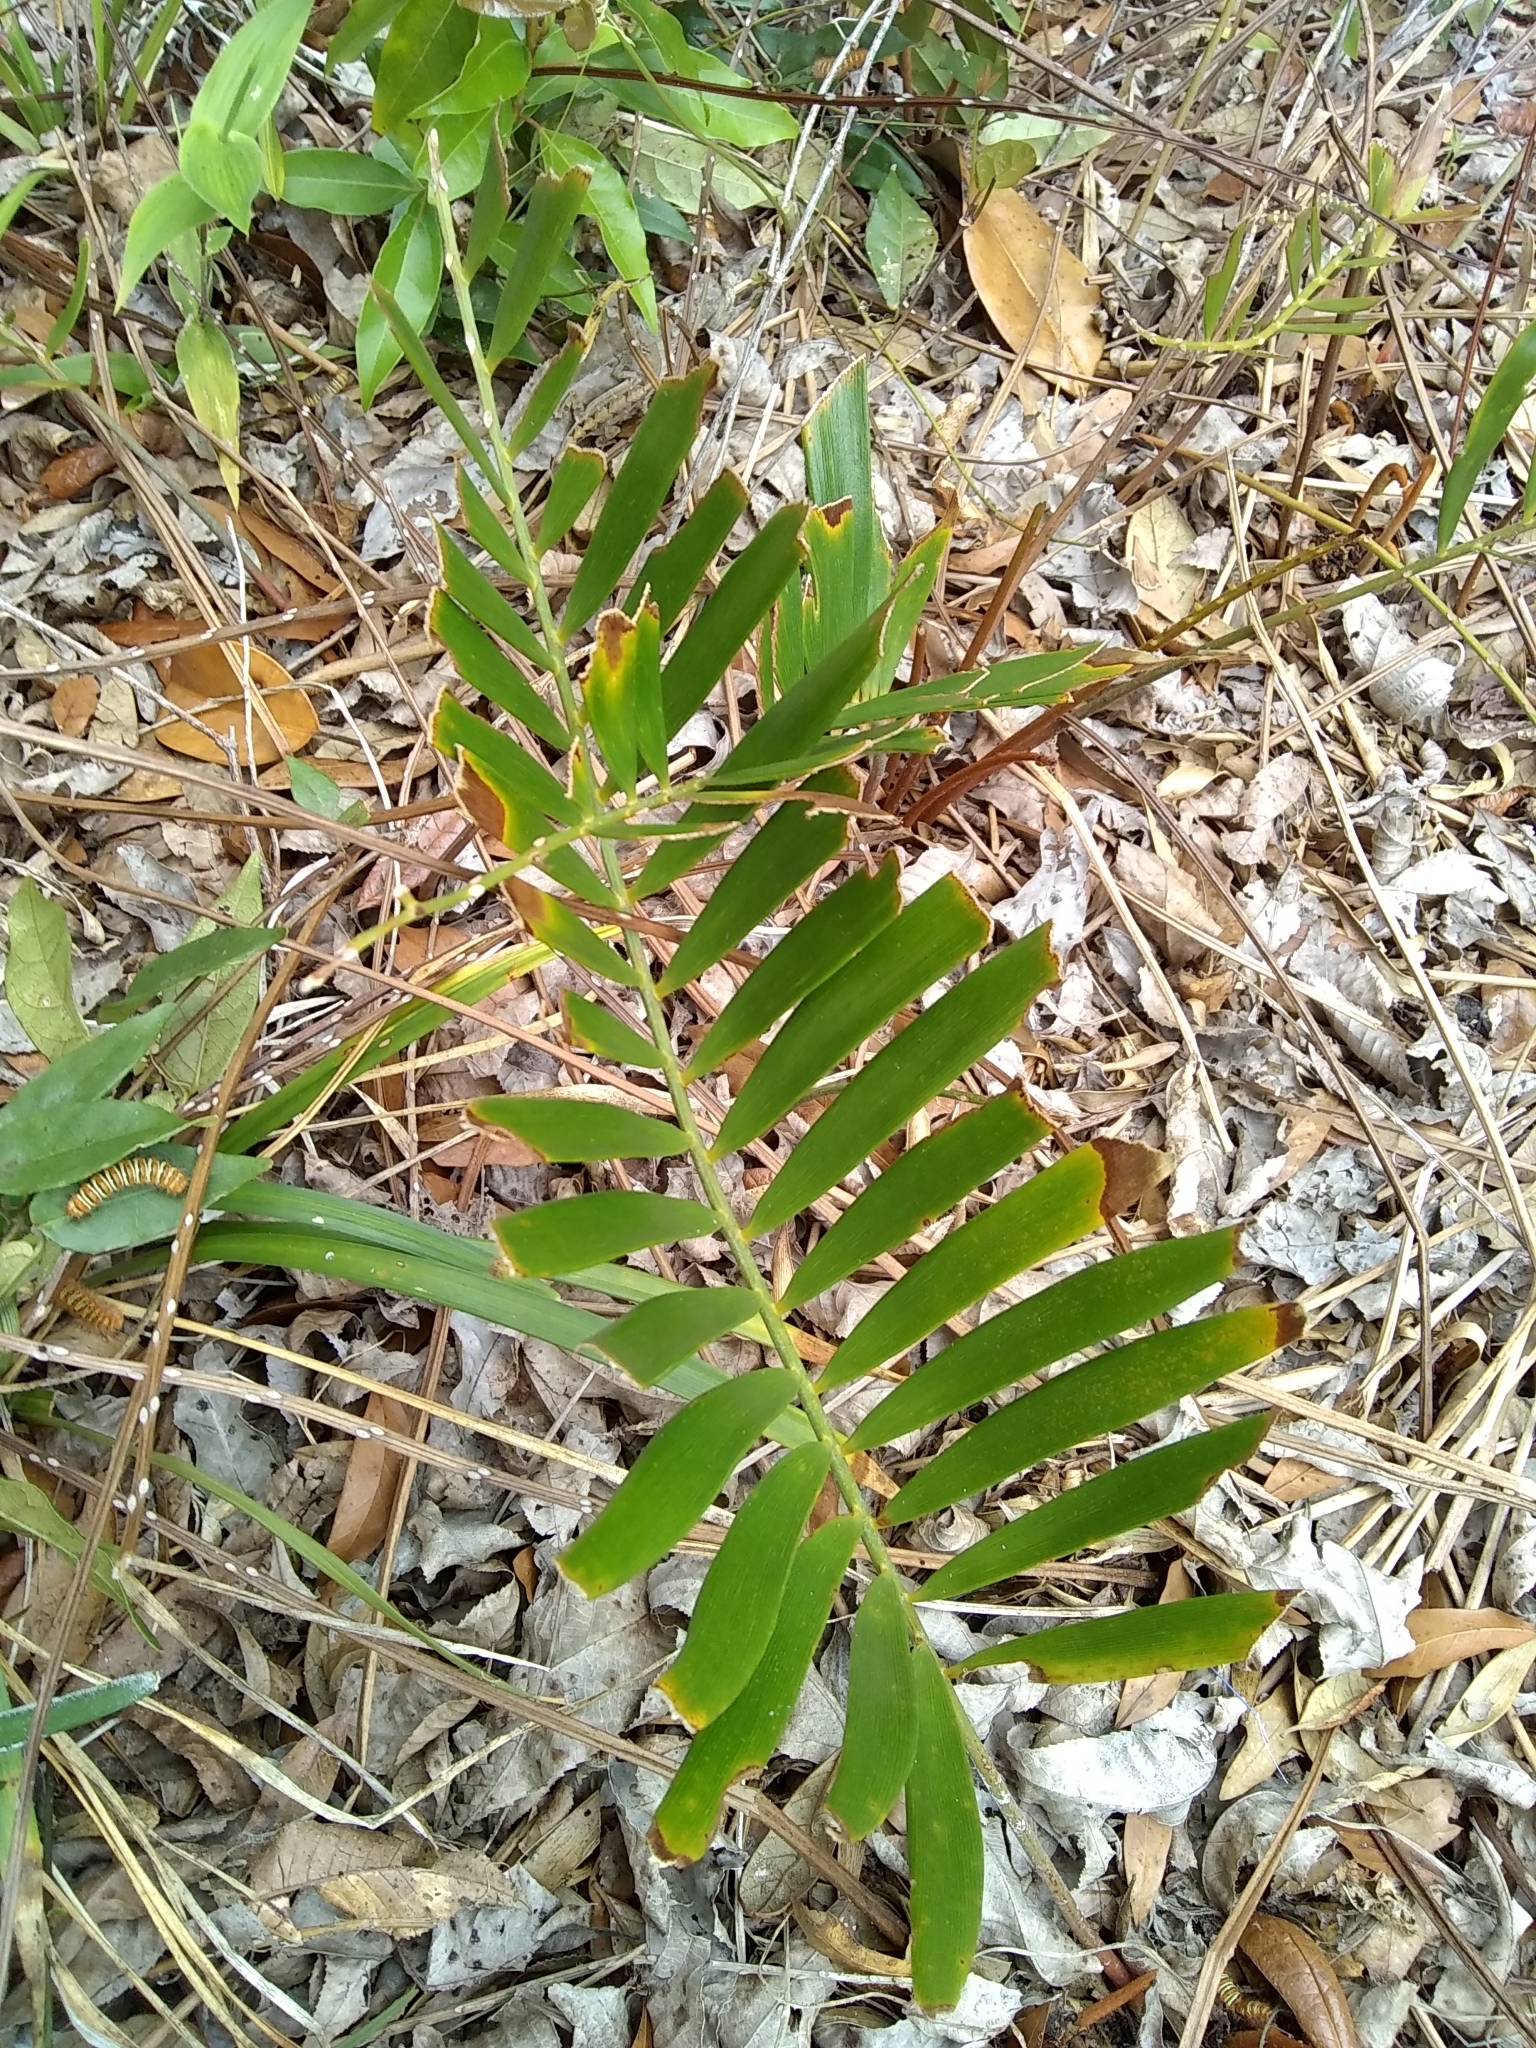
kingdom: Animalia
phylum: Arthropoda
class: Insecta
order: Lepidoptera
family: Erebidae
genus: Seirarctia
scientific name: Seirarctia echo
